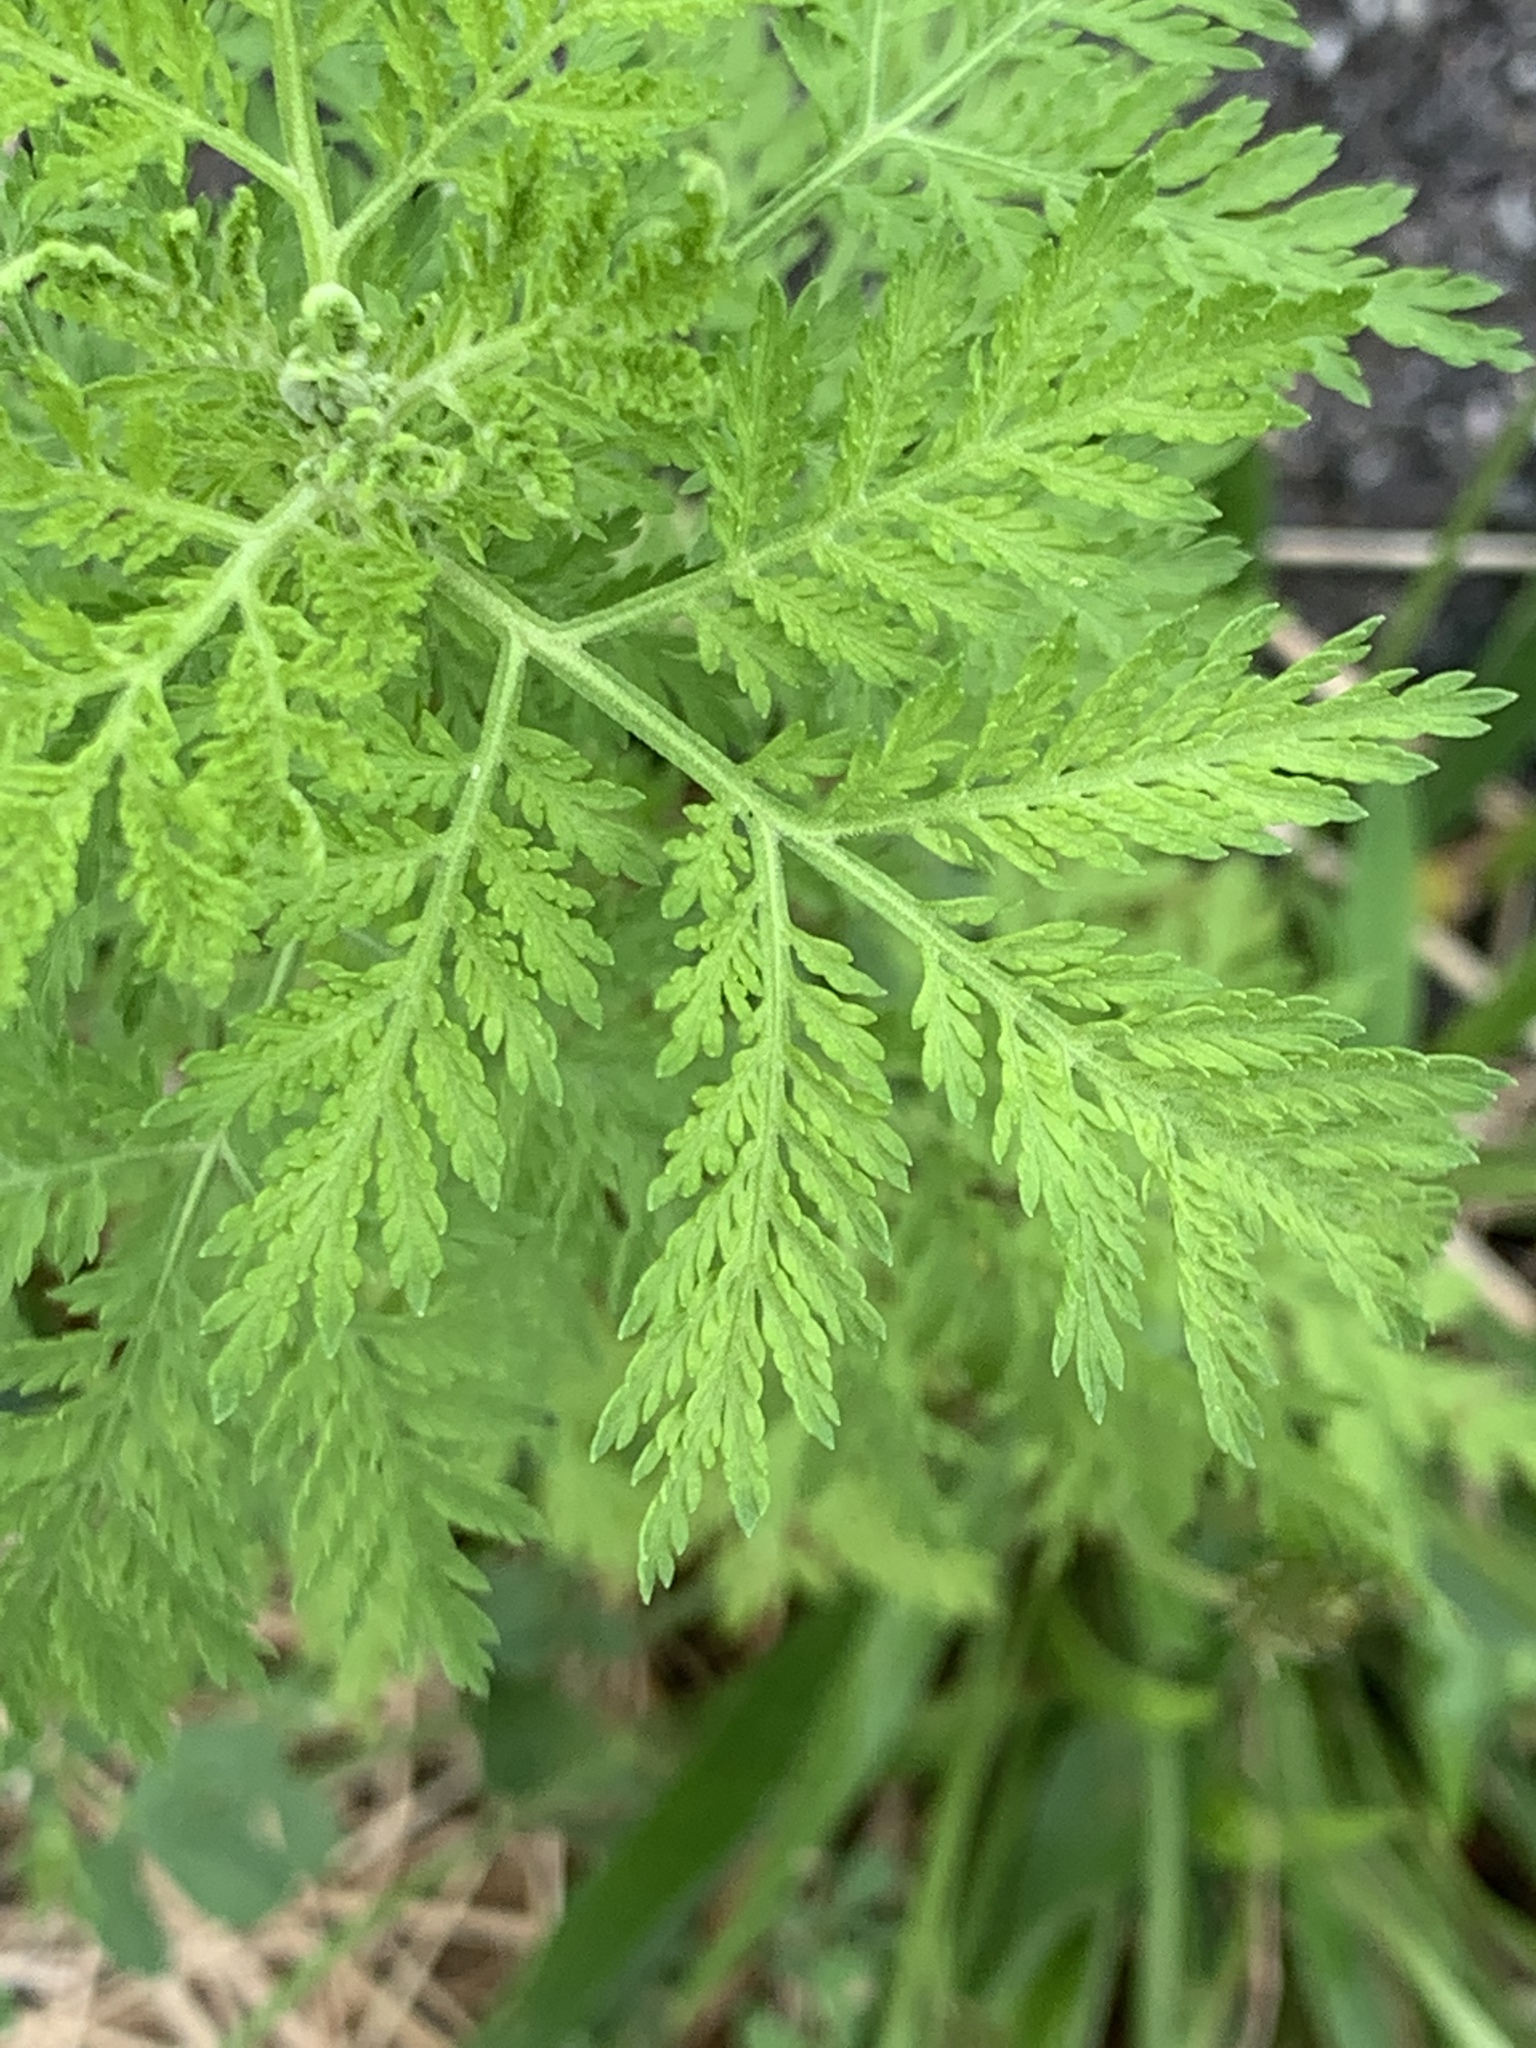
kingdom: Plantae
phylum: Tracheophyta
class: Magnoliopsida
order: Asterales
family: Asteraceae
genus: Artemisia
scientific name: Artemisia annua
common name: Sweet sagewort
